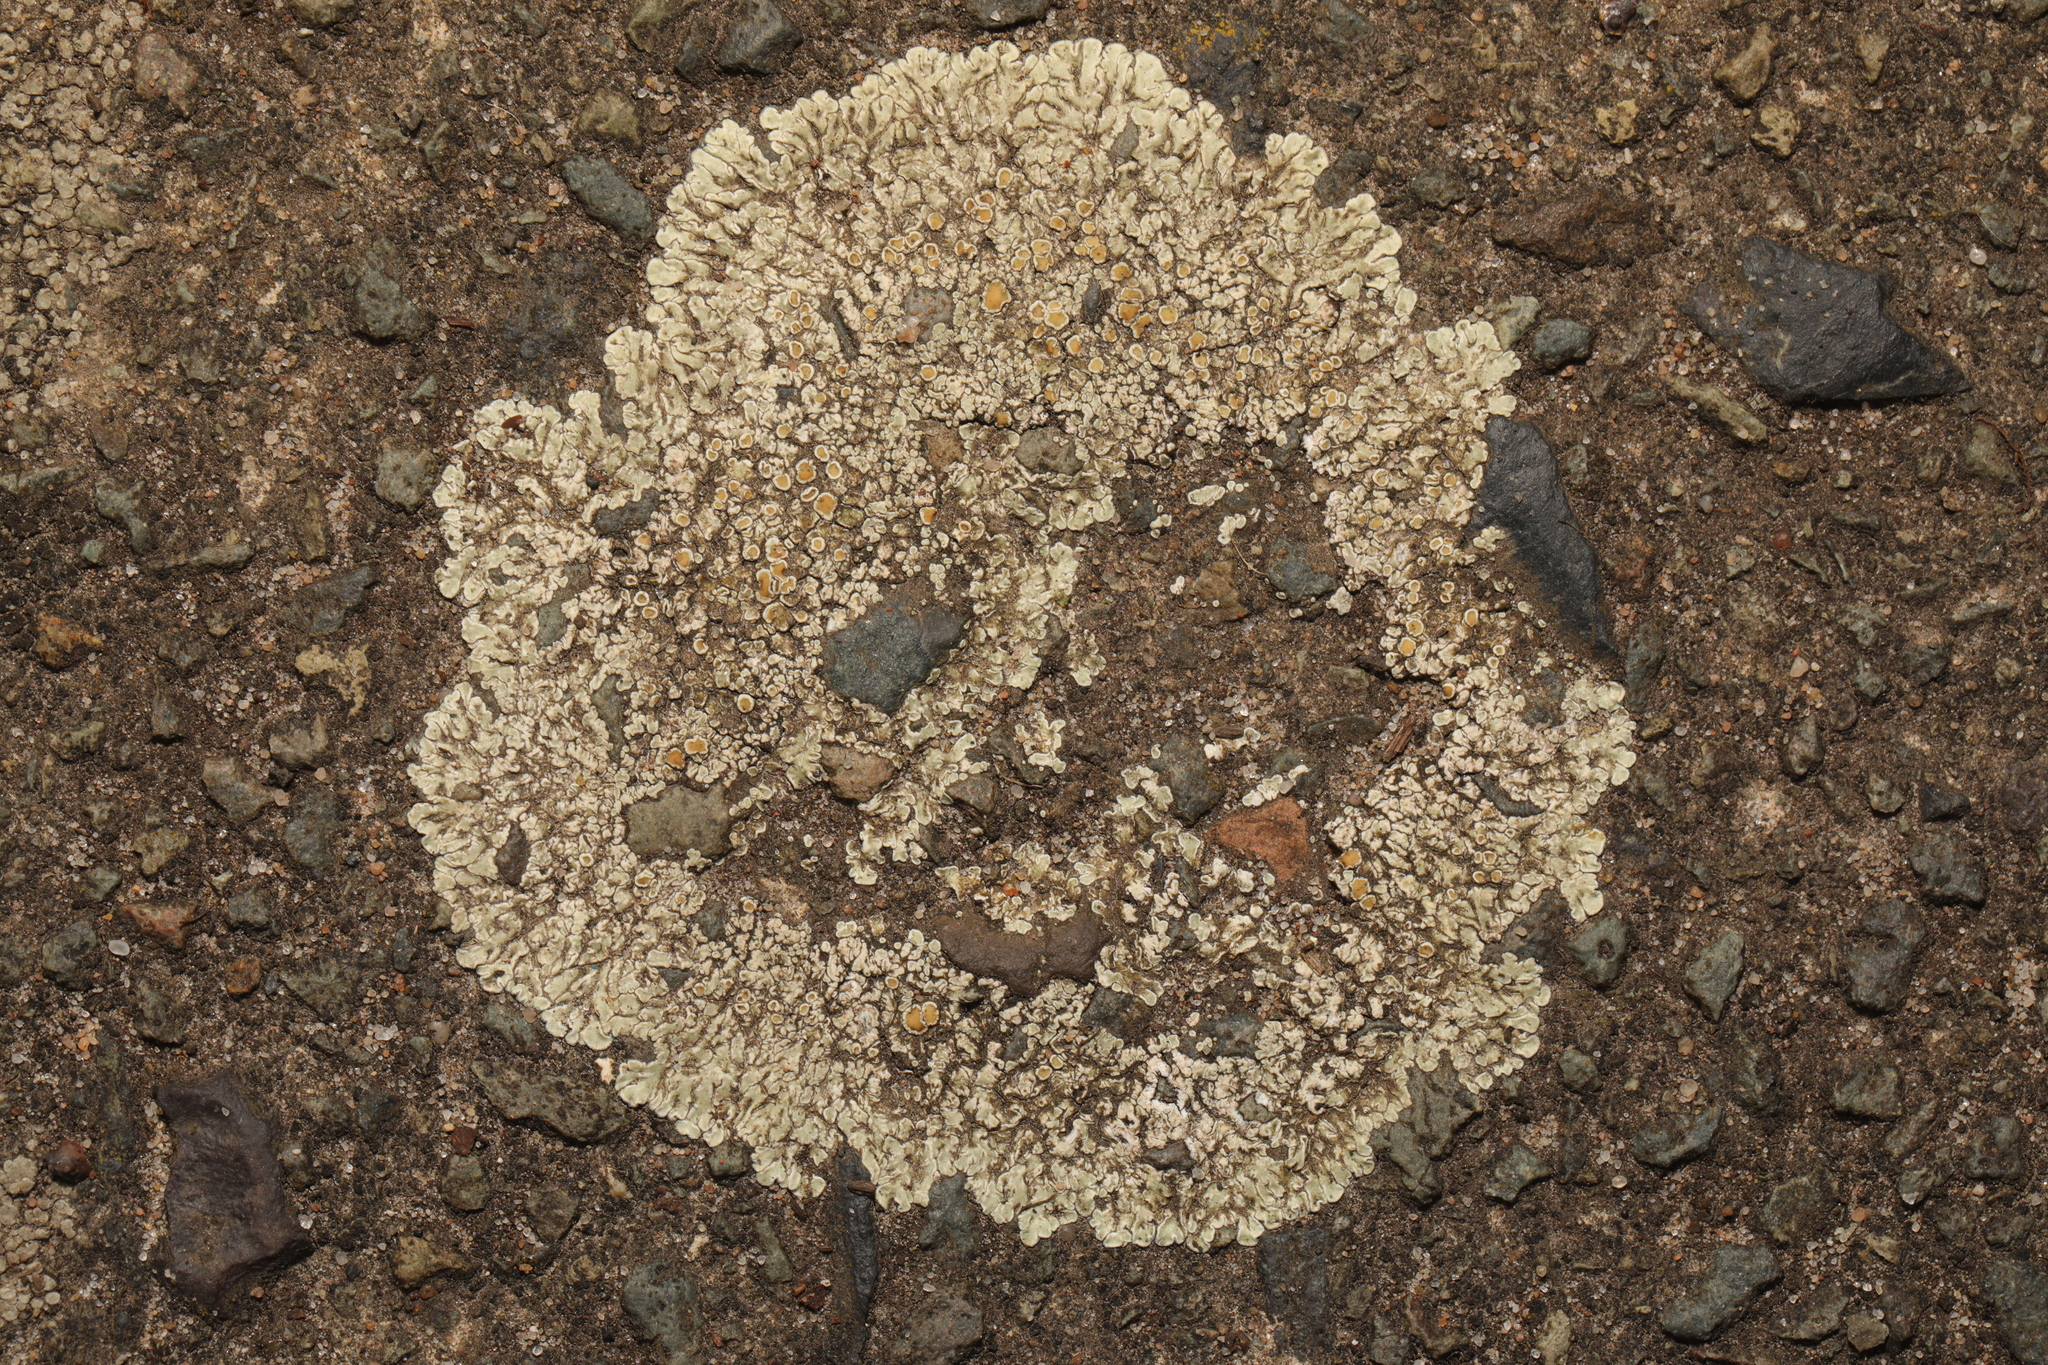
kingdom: Fungi
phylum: Ascomycota
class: Lecanoromycetes
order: Lecanorales
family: Lecanoraceae
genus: Protoparmeliopsis
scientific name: Protoparmeliopsis muralis
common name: Stonewall rim lichen
